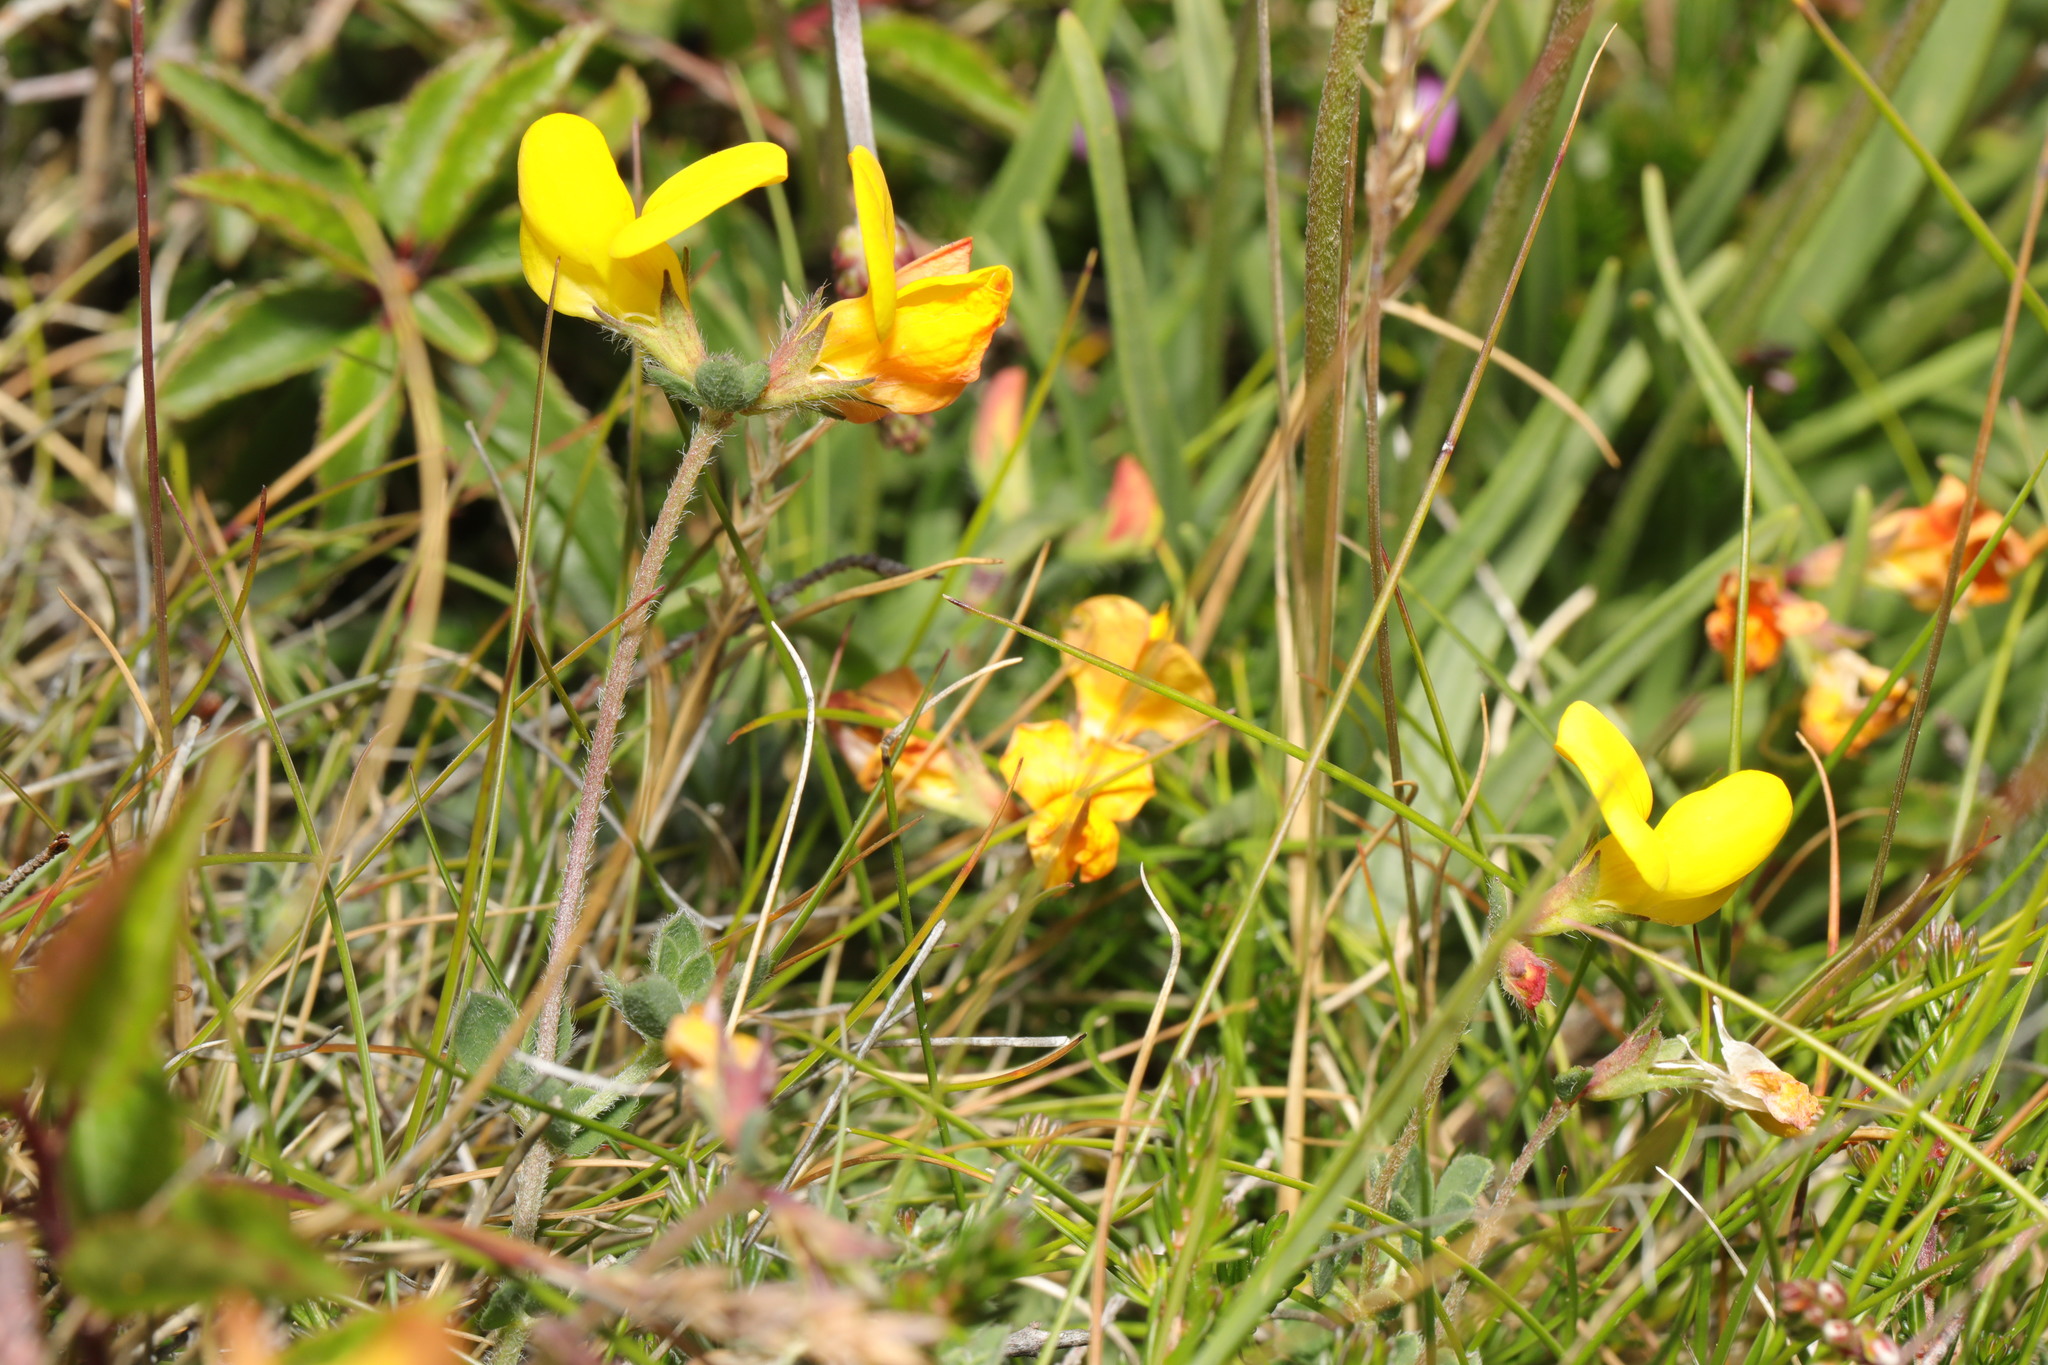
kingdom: Plantae
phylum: Tracheophyta
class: Magnoliopsida
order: Fabales
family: Fabaceae
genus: Lotus
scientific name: Lotus corniculatus
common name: Common bird's-foot-trefoil
